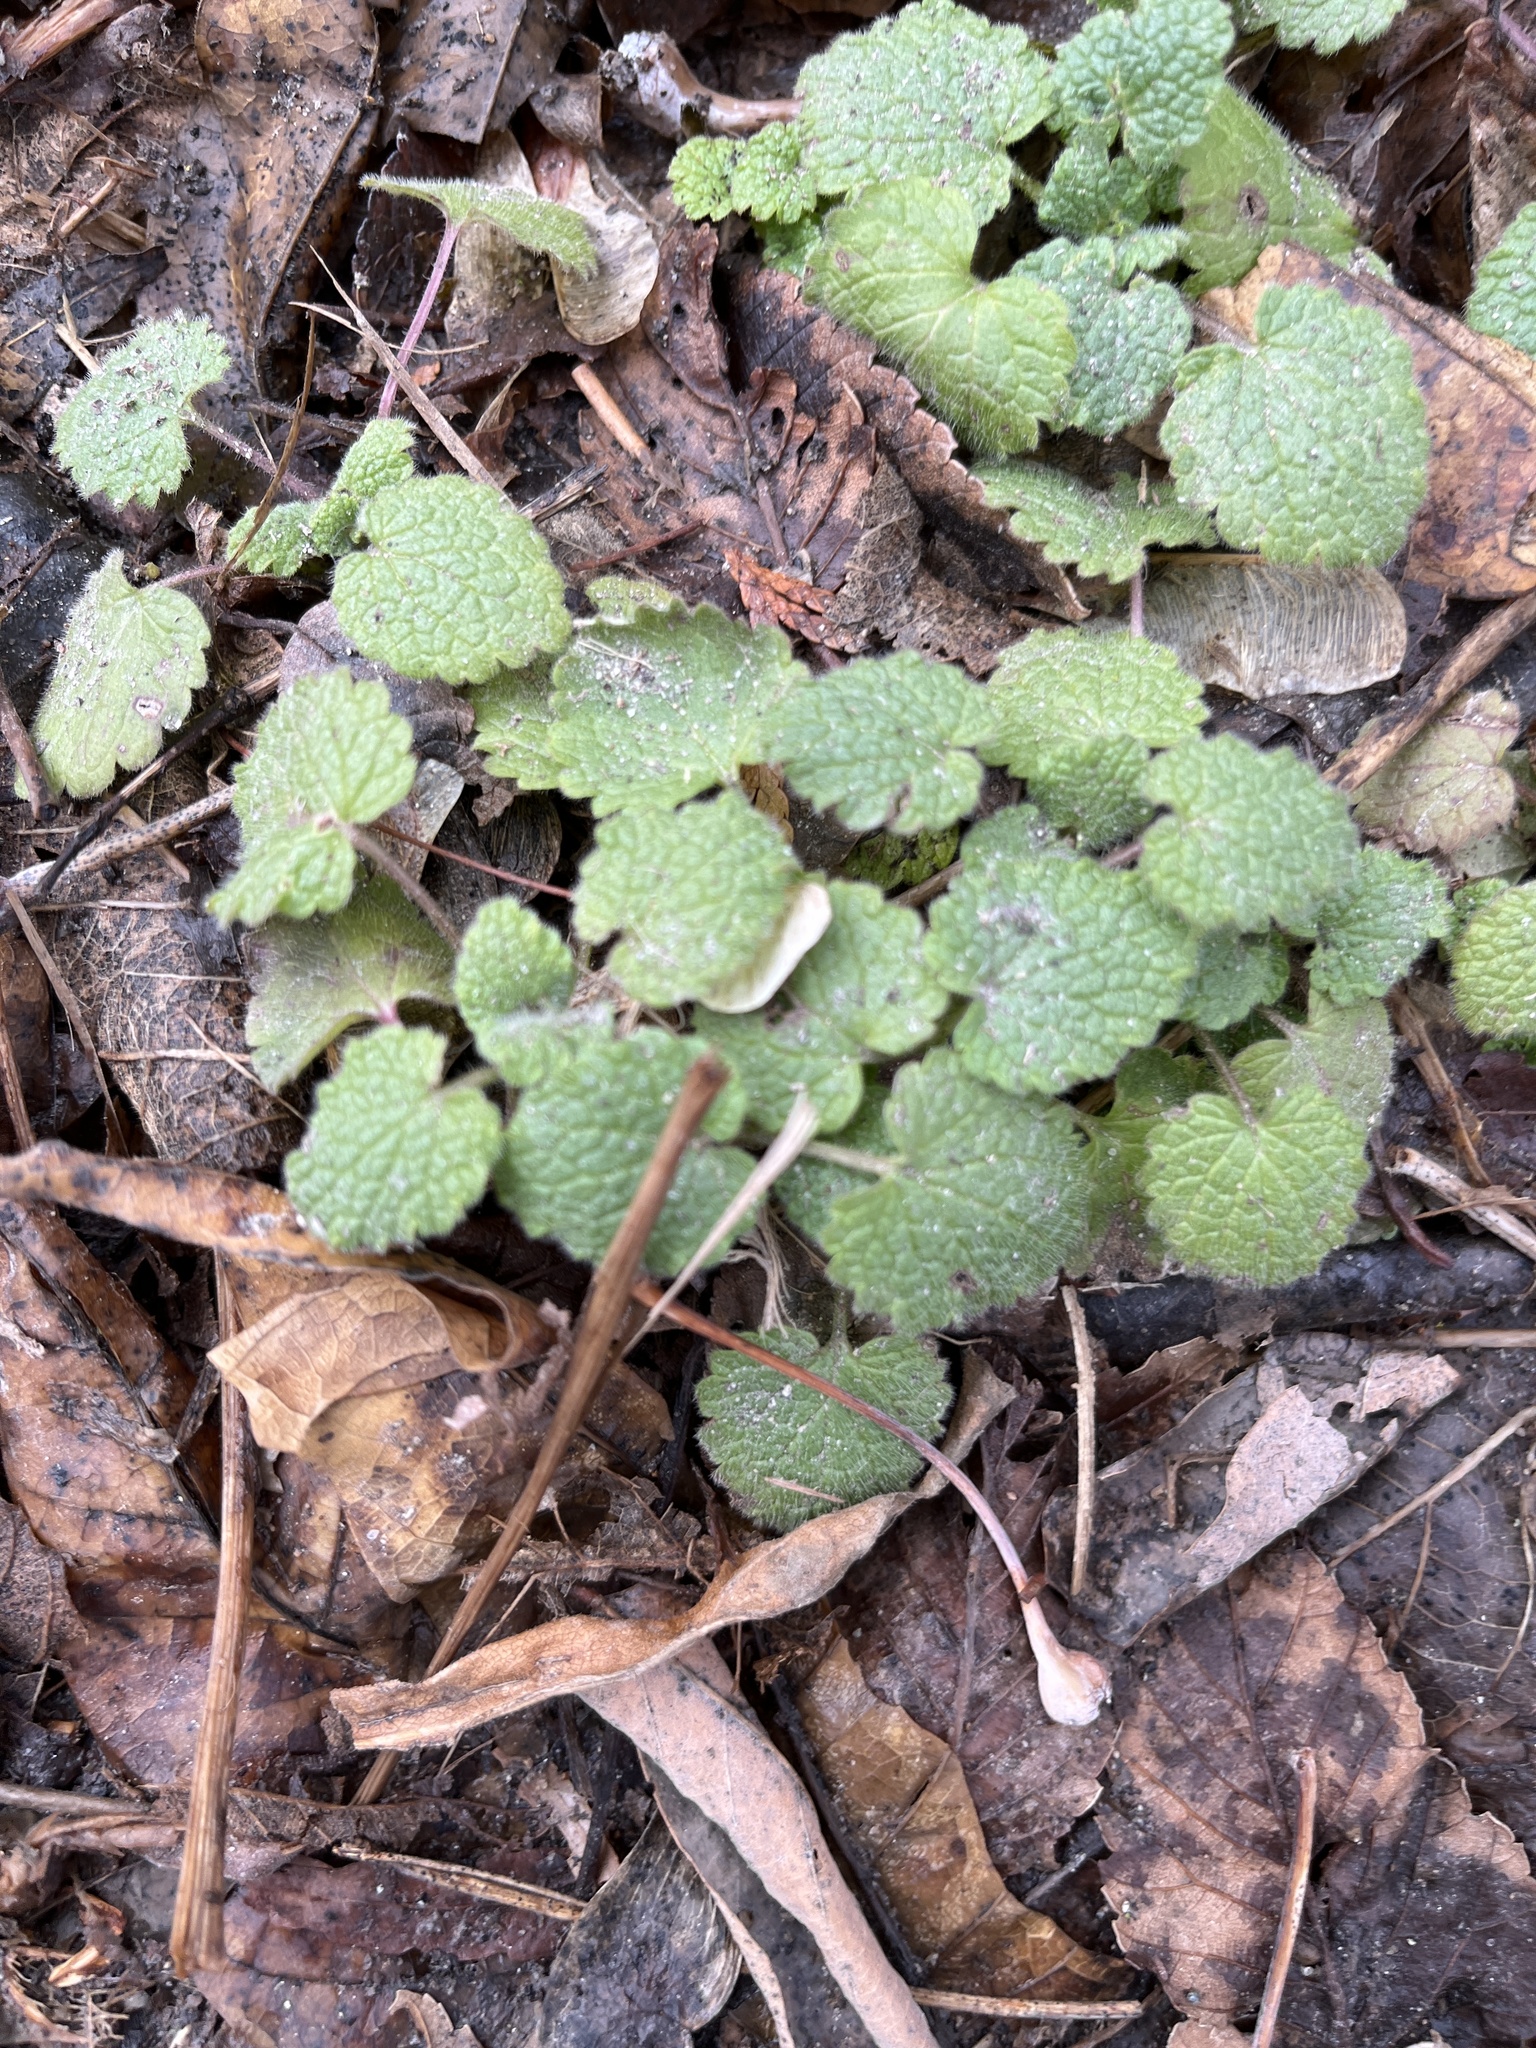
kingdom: Plantae
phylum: Tracheophyta
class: Magnoliopsida
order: Lamiales
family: Lamiaceae
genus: Lamium
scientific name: Lamium purpureum
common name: Red dead-nettle
